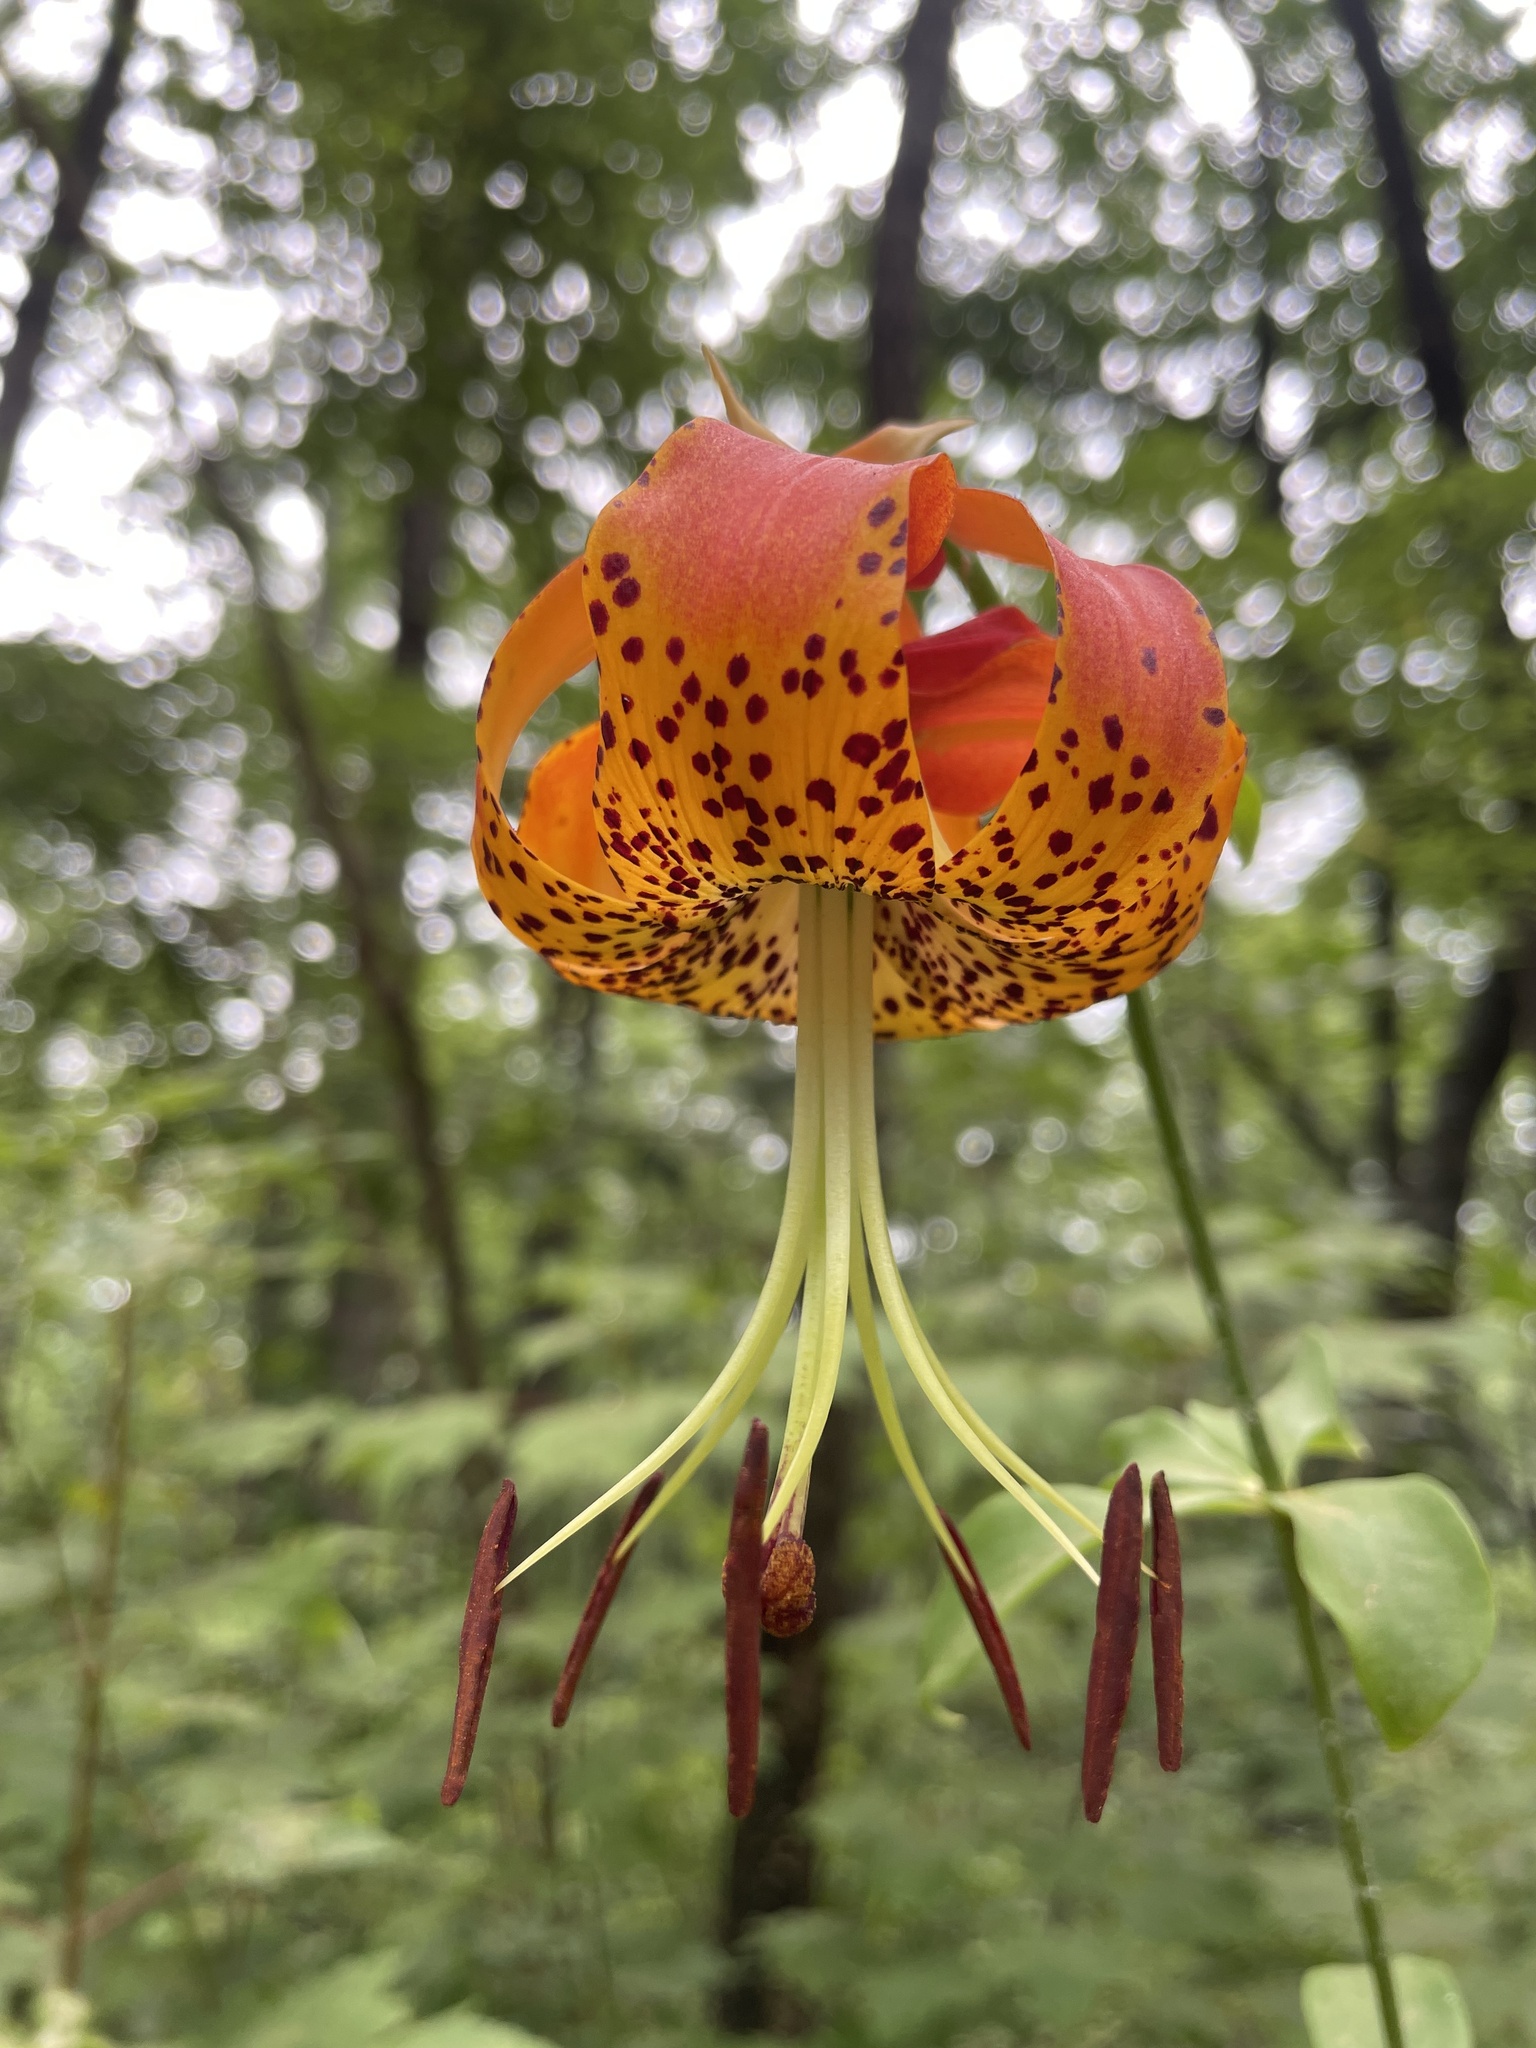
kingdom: Plantae
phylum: Tracheophyta
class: Liliopsida
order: Liliales
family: Liliaceae
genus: Lilium
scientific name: Lilium michauxii
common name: Carolina lily
